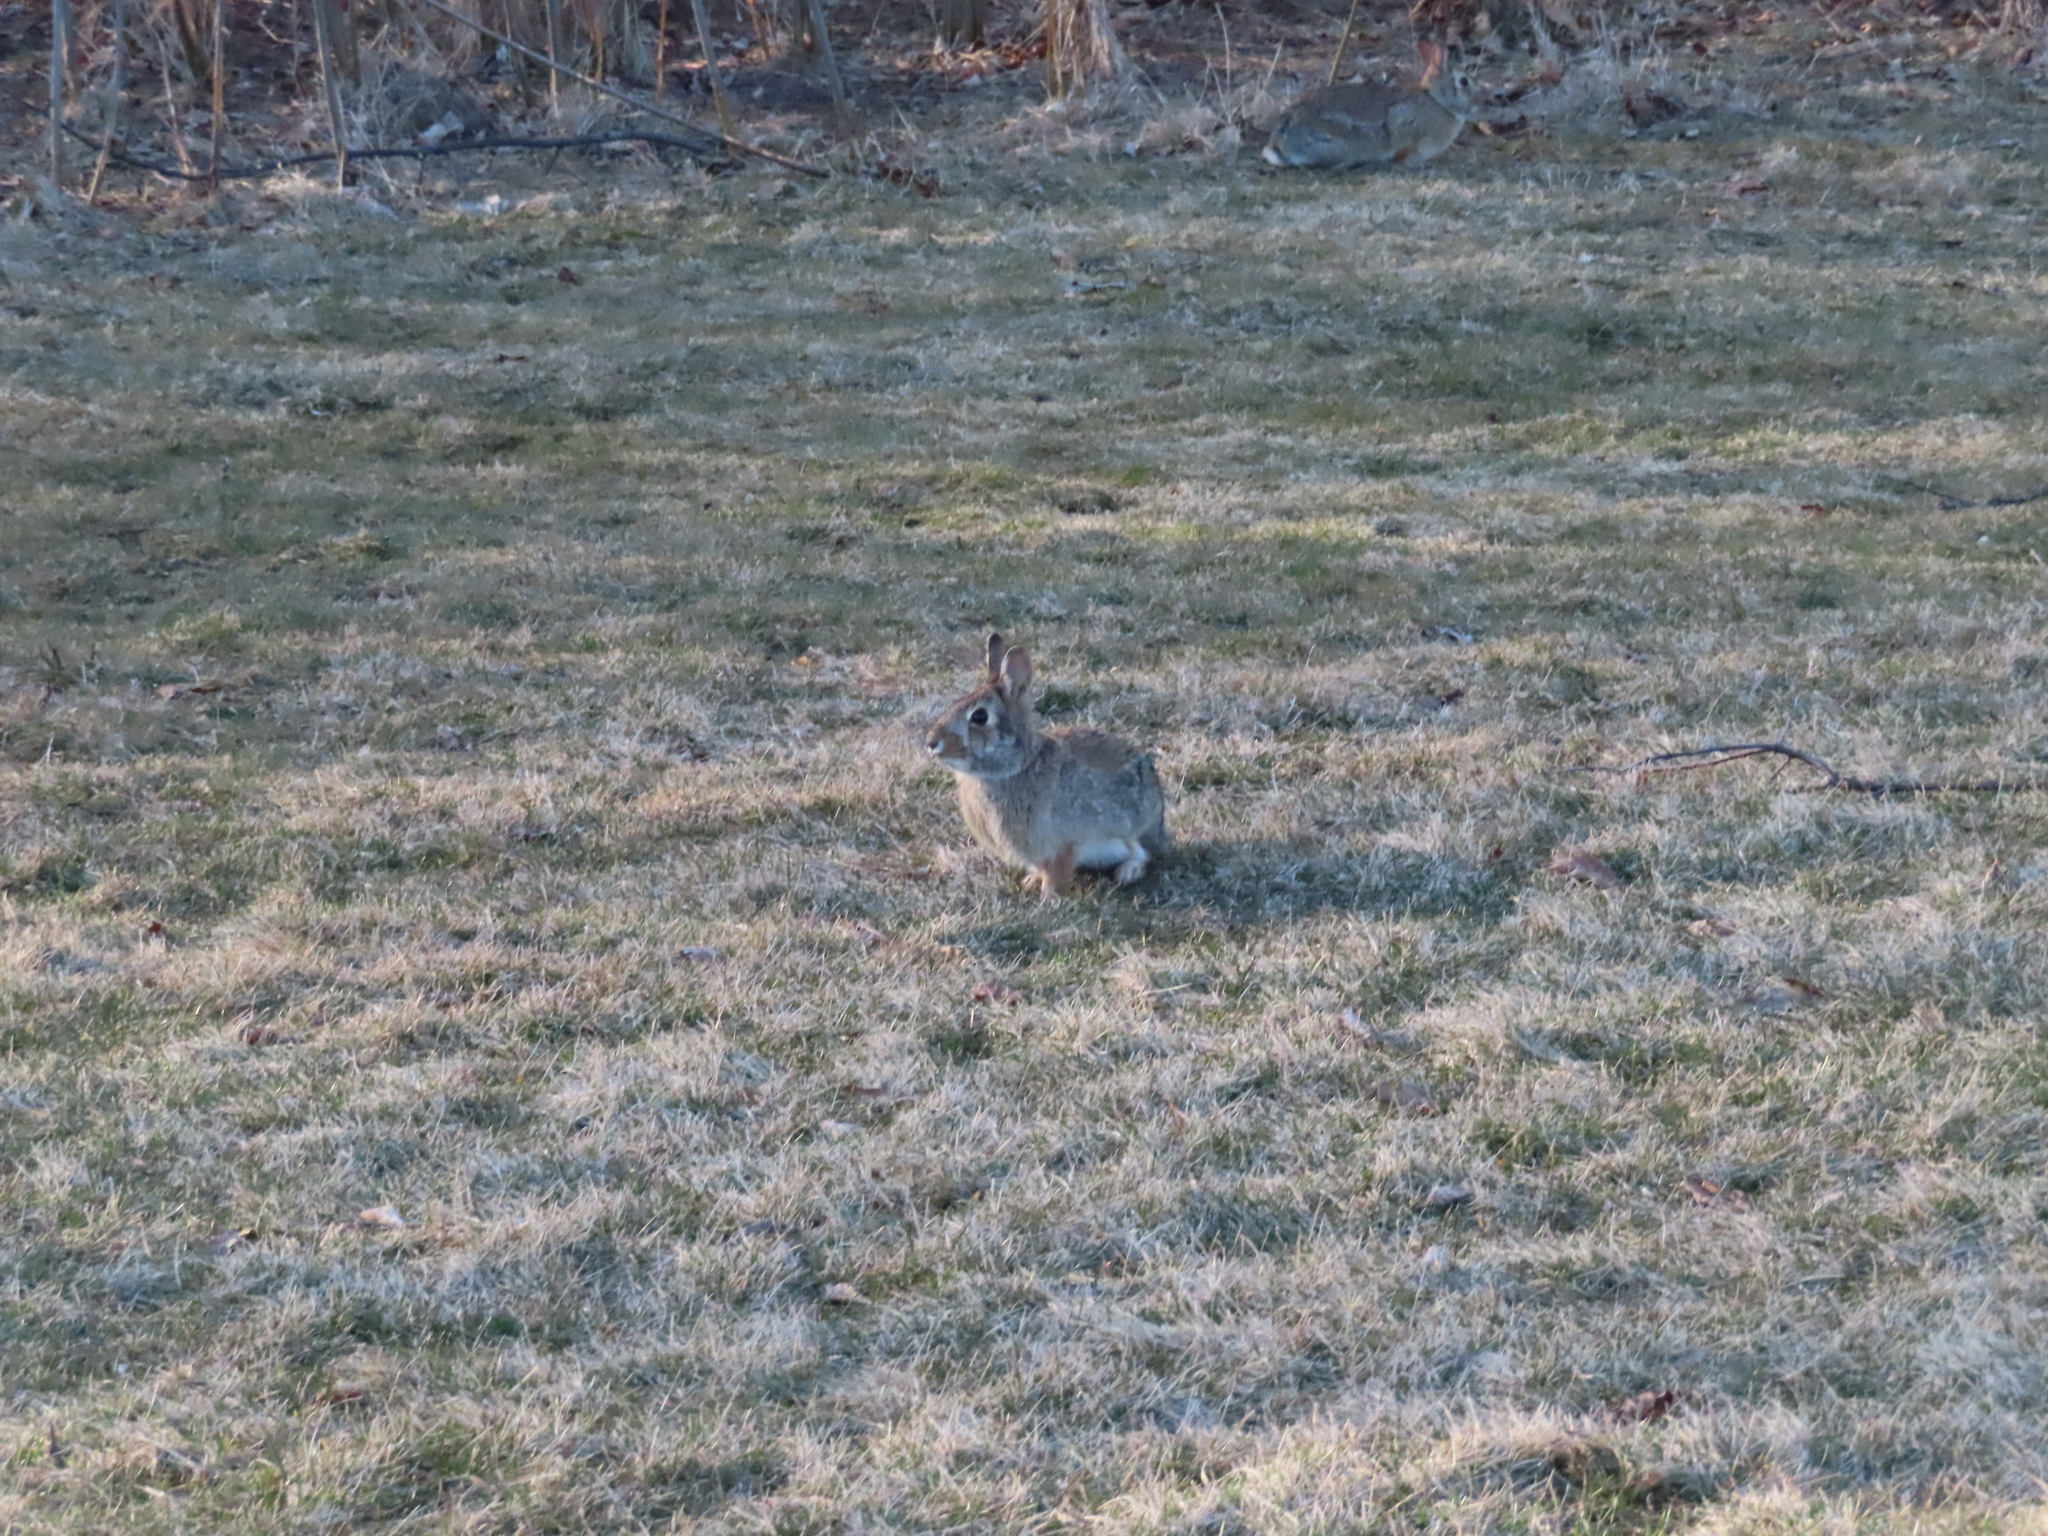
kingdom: Animalia
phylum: Chordata
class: Mammalia
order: Lagomorpha
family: Leporidae
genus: Sylvilagus
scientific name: Sylvilagus floridanus
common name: Eastern cottontail
